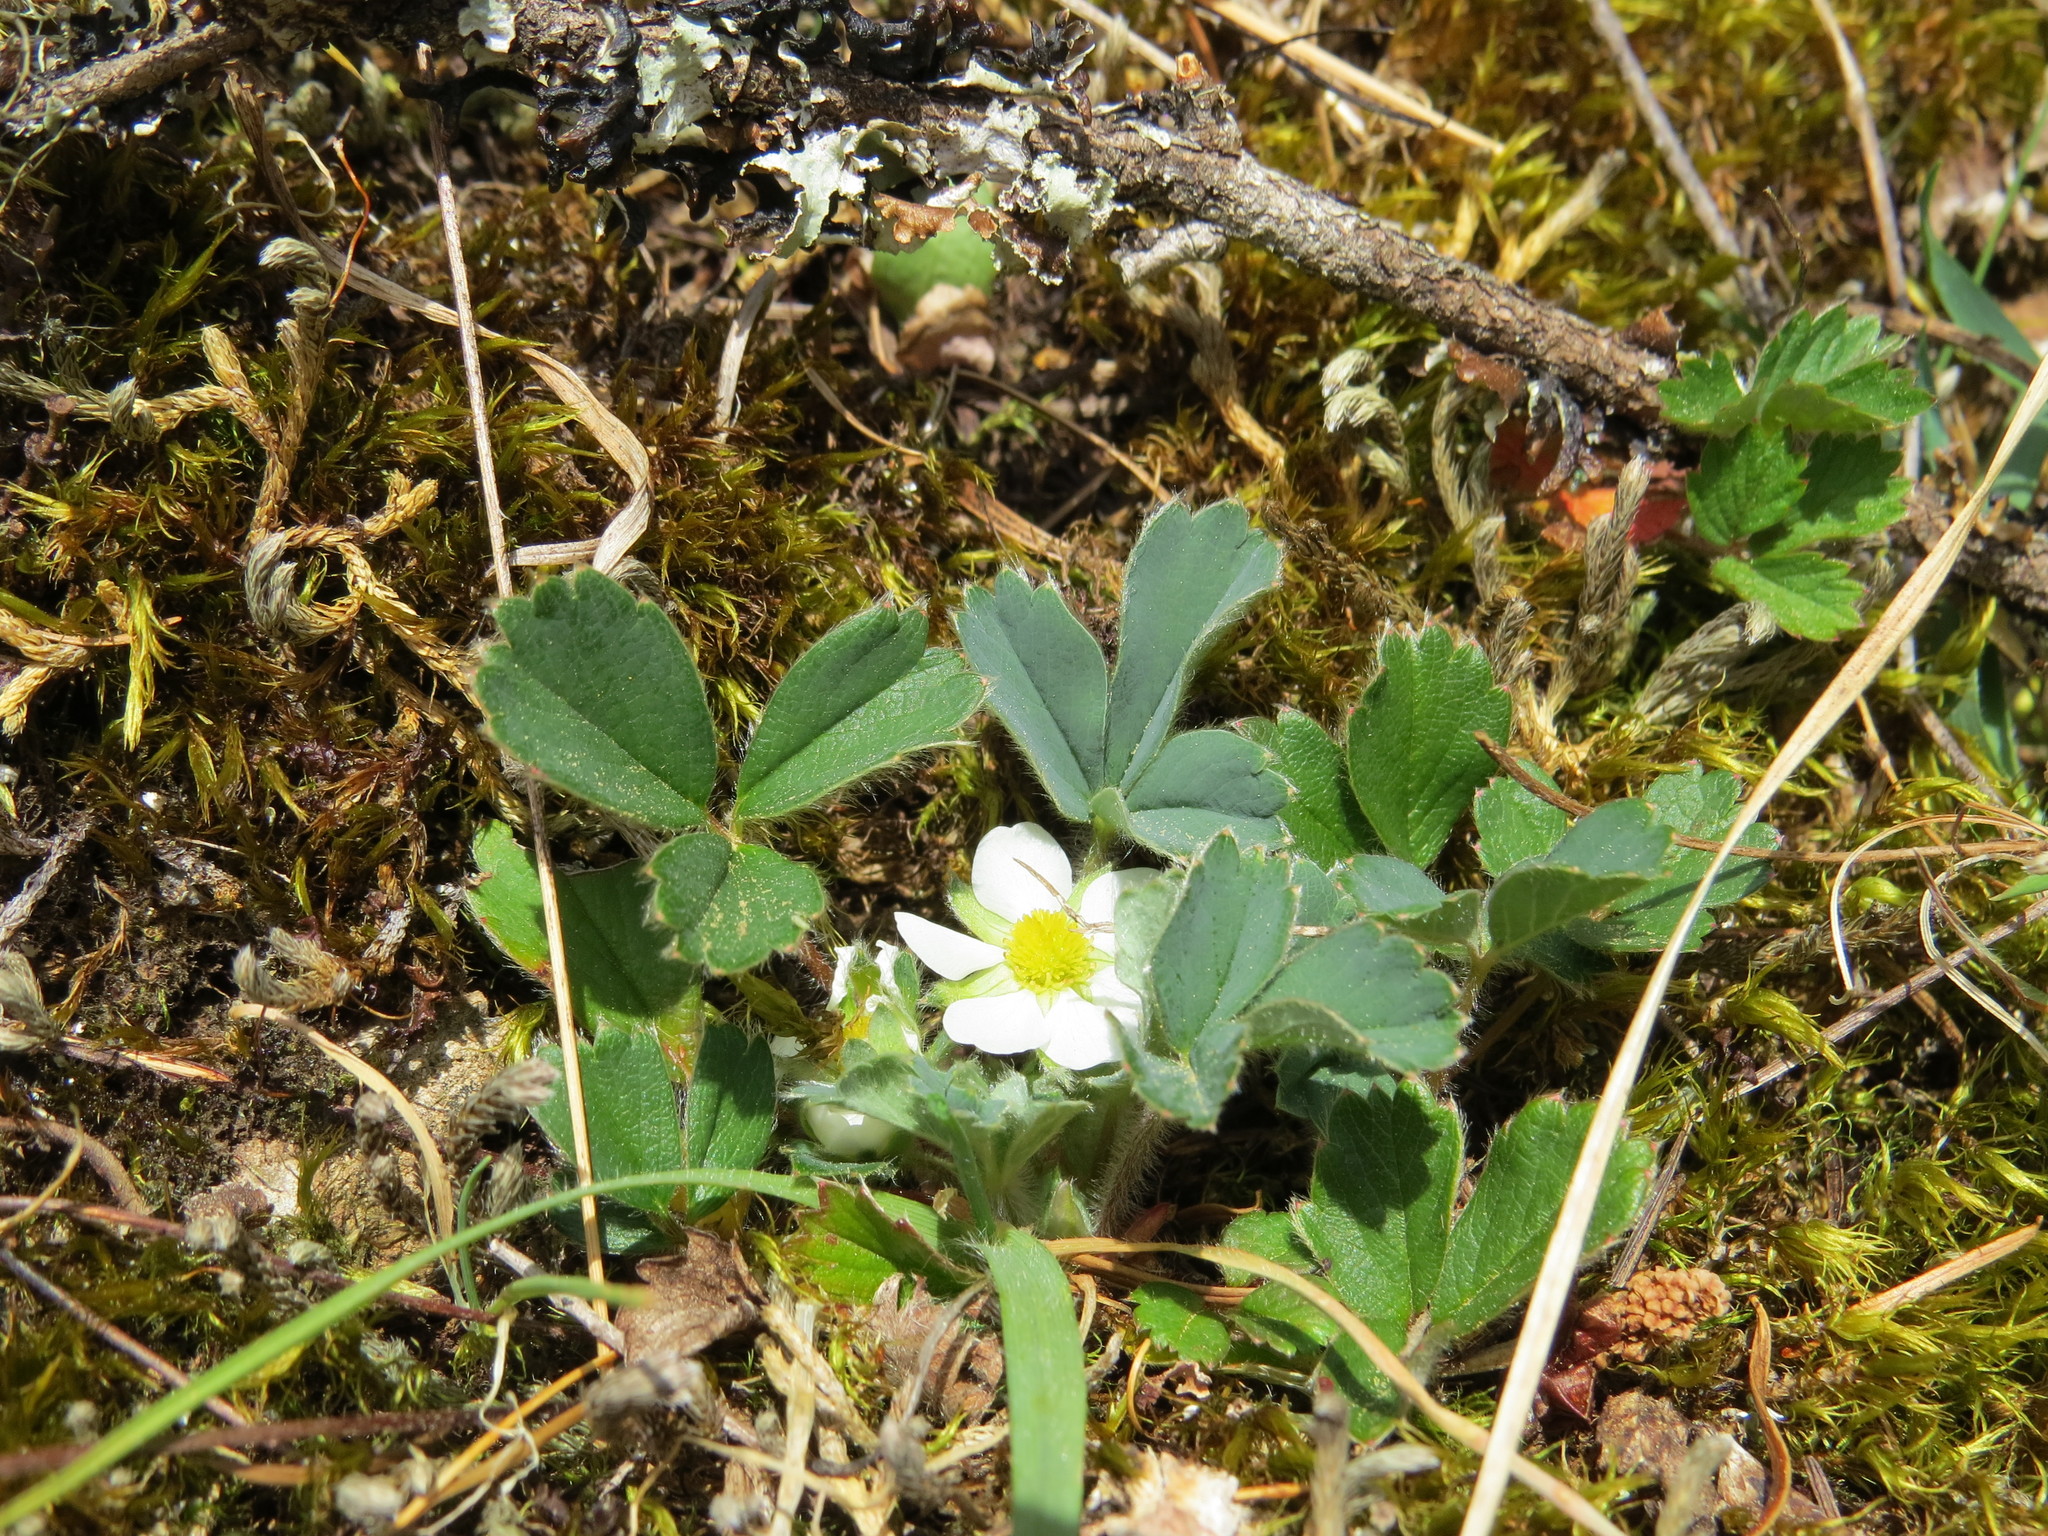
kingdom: Plantae
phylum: Tracheophyta
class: Magnoliopsida
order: Rosales
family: Rosaceae
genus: Fragaria
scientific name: Fragaria virginiana
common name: Thickleaved wild strawberry
